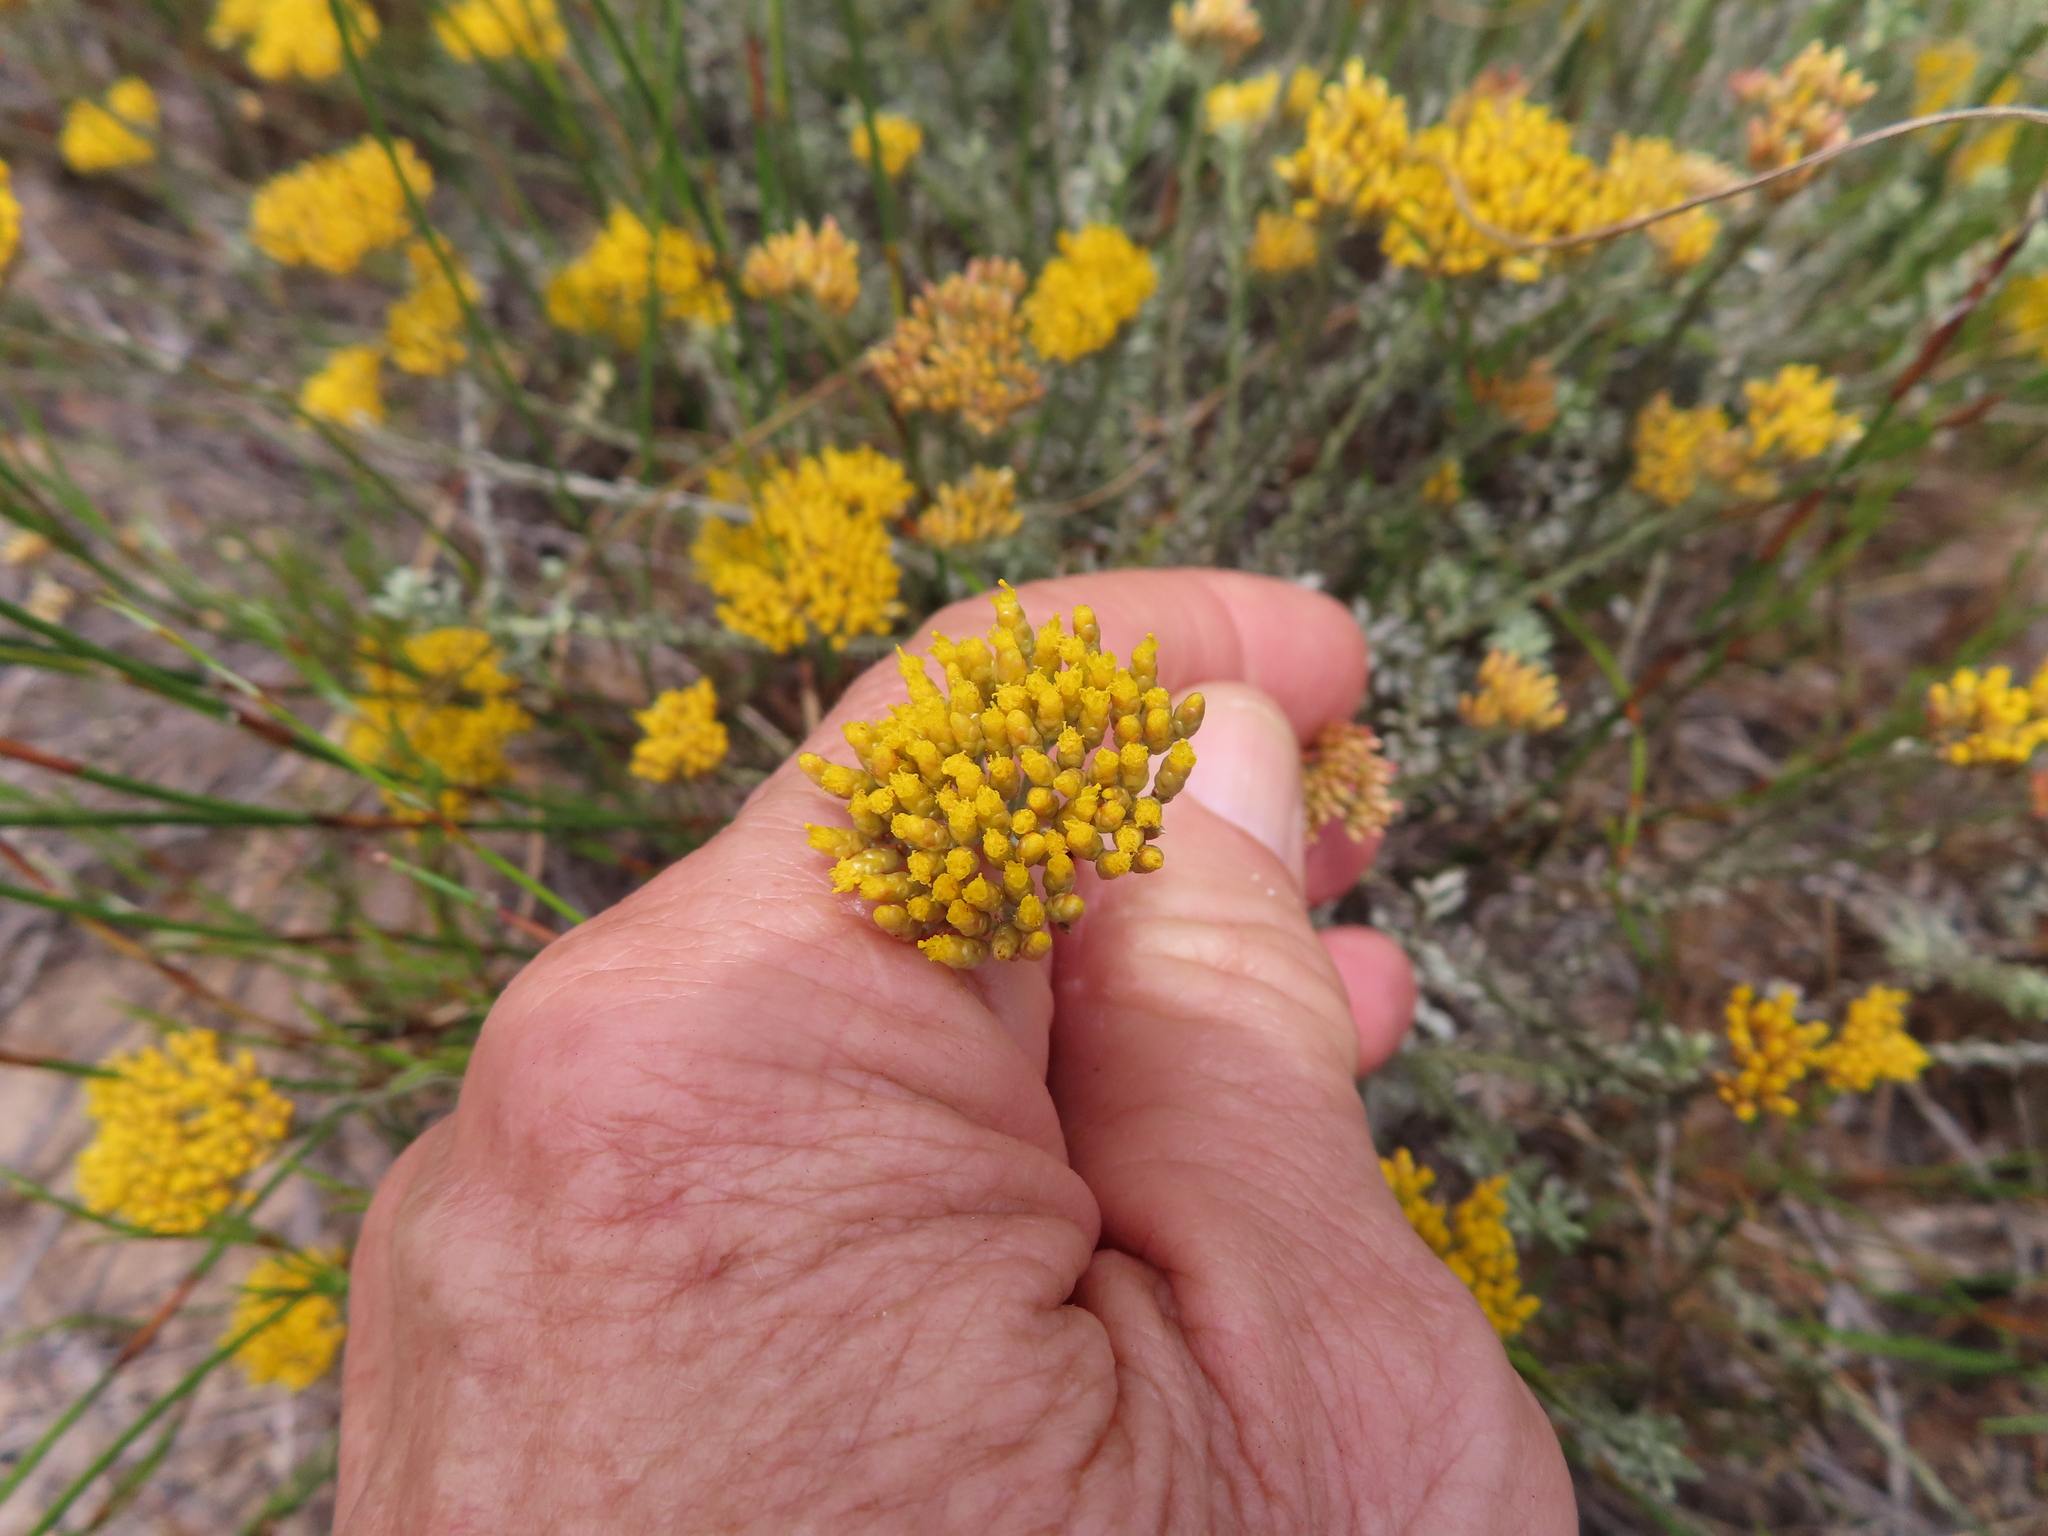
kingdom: Plantae
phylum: Tracheophyta
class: Magnoliopsida
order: Asterales
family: Asteraceae
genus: Helichrysum
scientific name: Helichrysum rutilans
